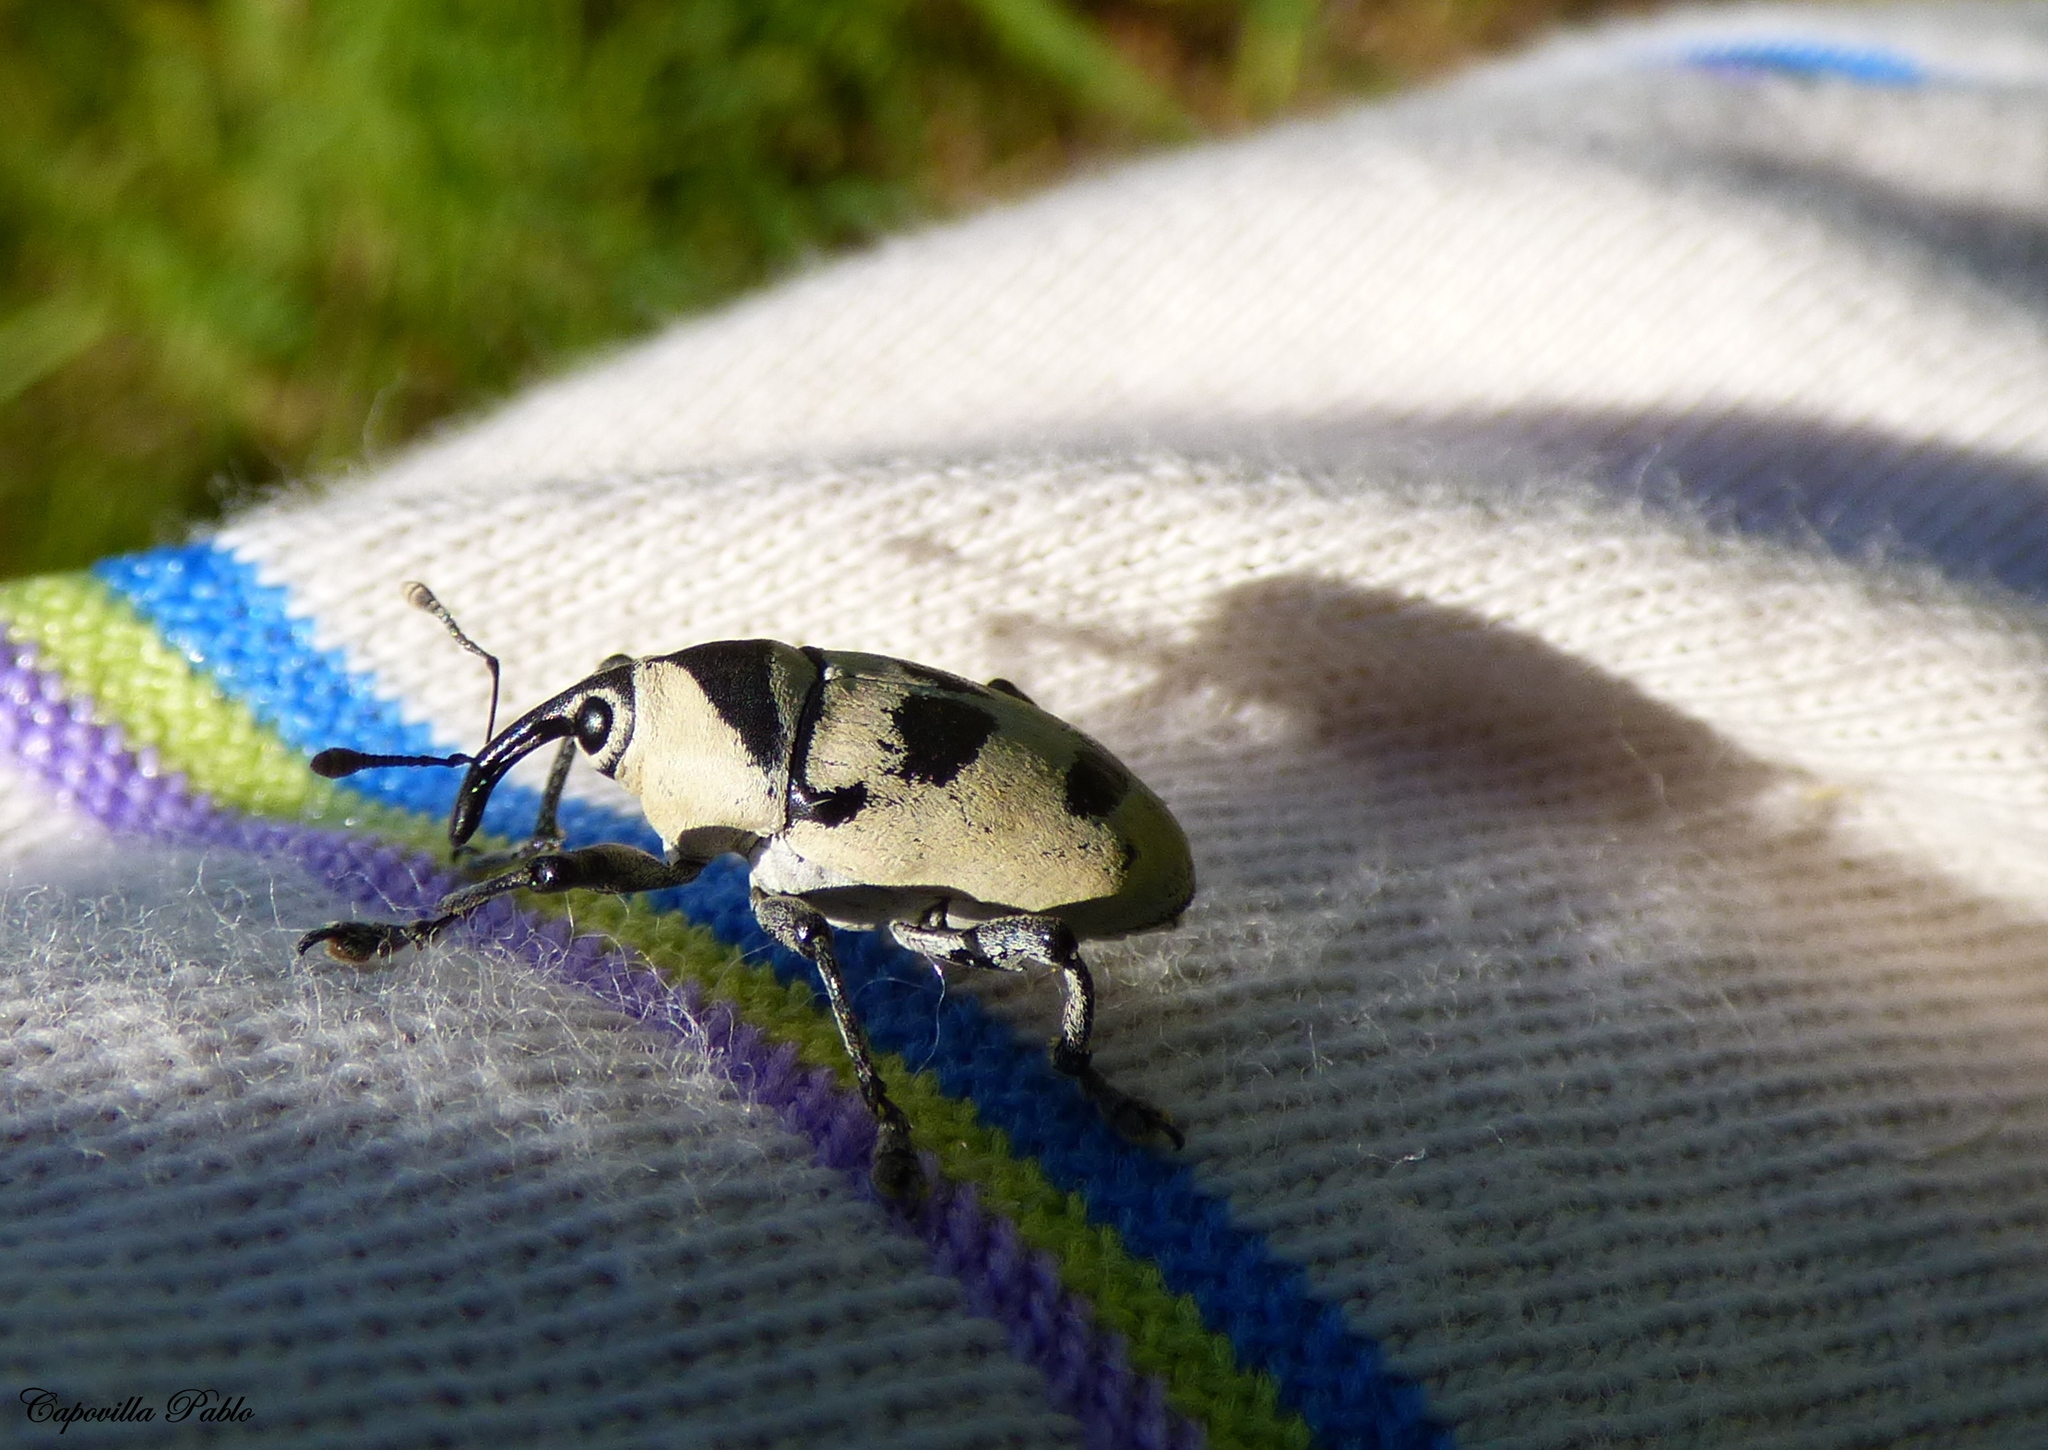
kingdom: Animalia
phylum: Arthropoda
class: Insecta
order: Coleoptera
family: Curculionidae
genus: Cholus
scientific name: Cholus annulatus
